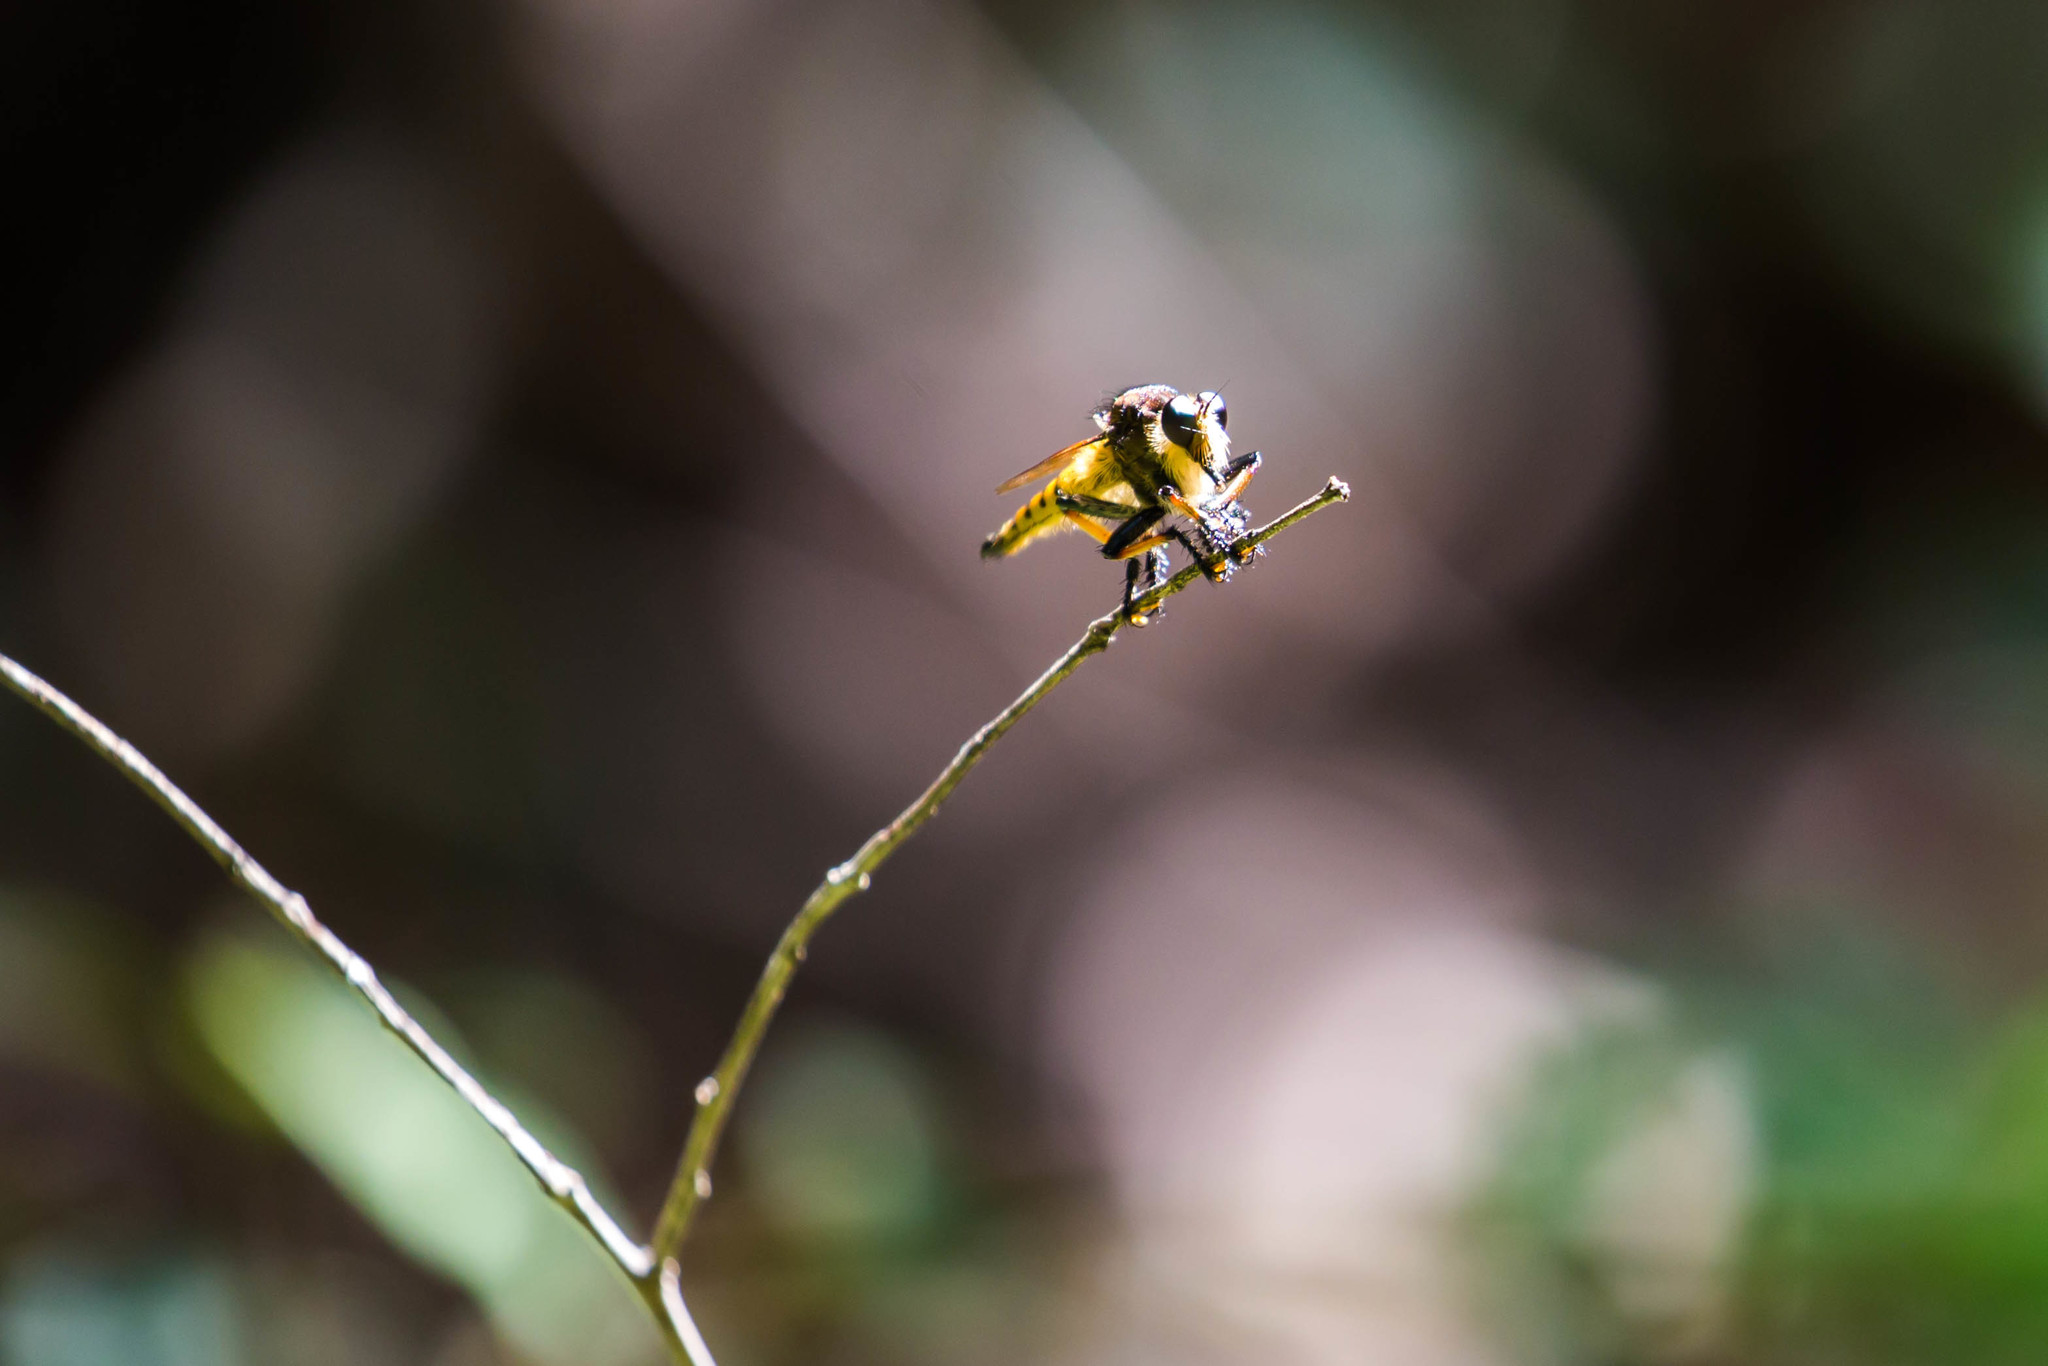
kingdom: Animalia
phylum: Arthropoda
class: Insecta
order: Diptera
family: Asilidae
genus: Promachus
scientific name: Promachus rufipes
